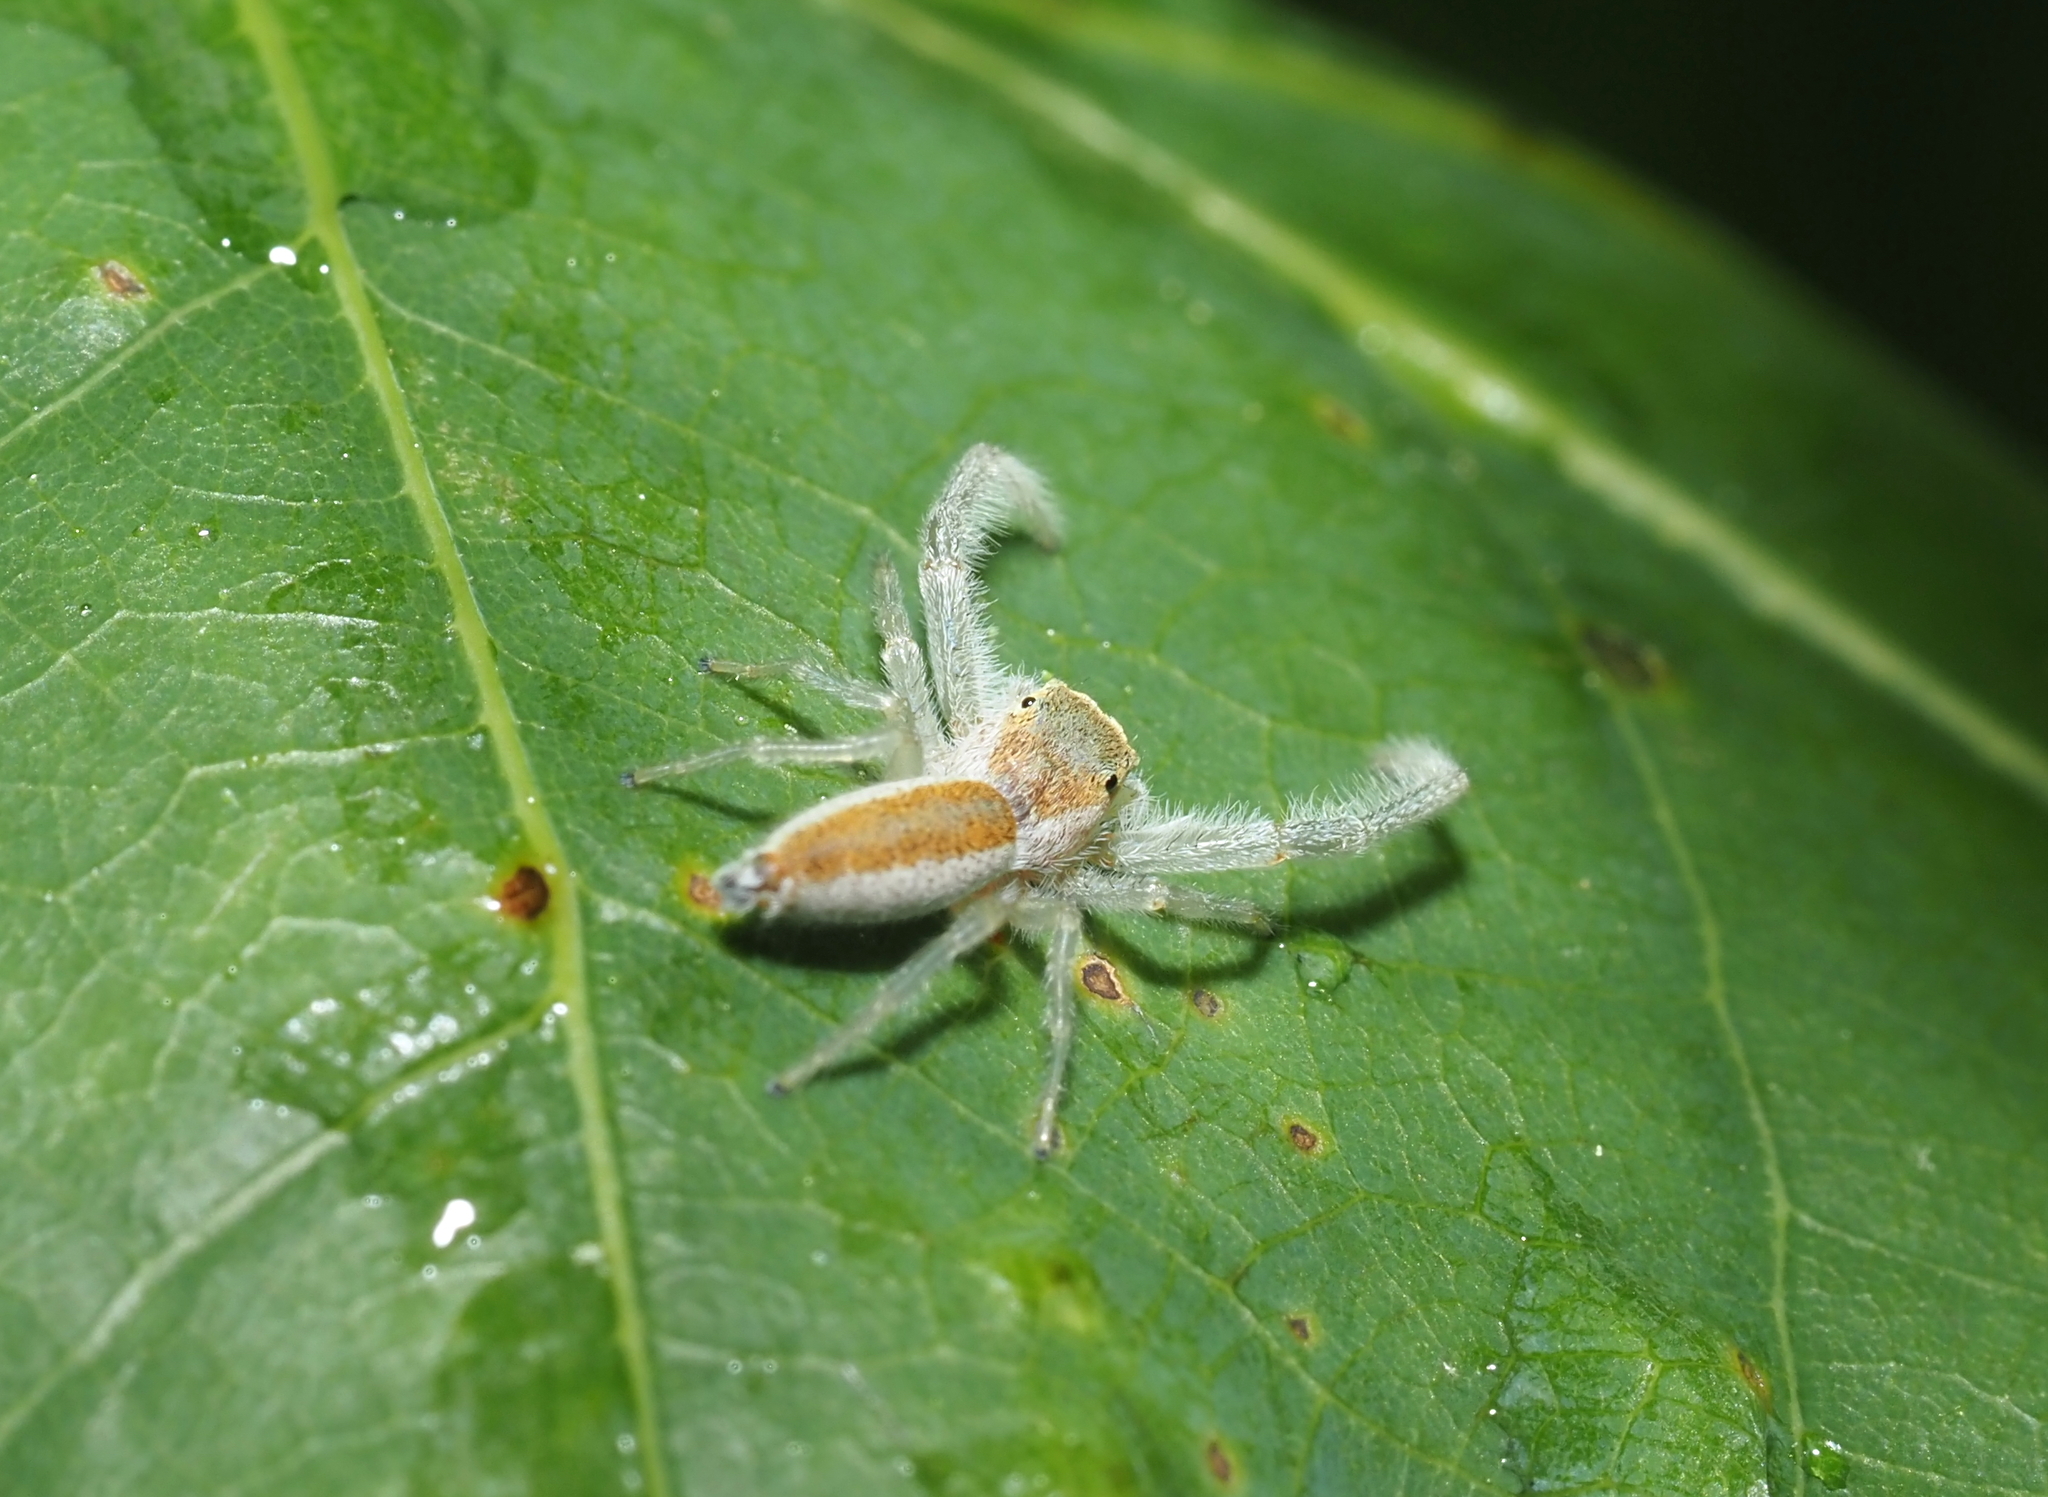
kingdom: Animalia
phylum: Arthropoda
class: Arachnida
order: Araneae
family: Salticidae
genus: Hentzia
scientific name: Hentzia mitrata
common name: White-jawed jumping spider
